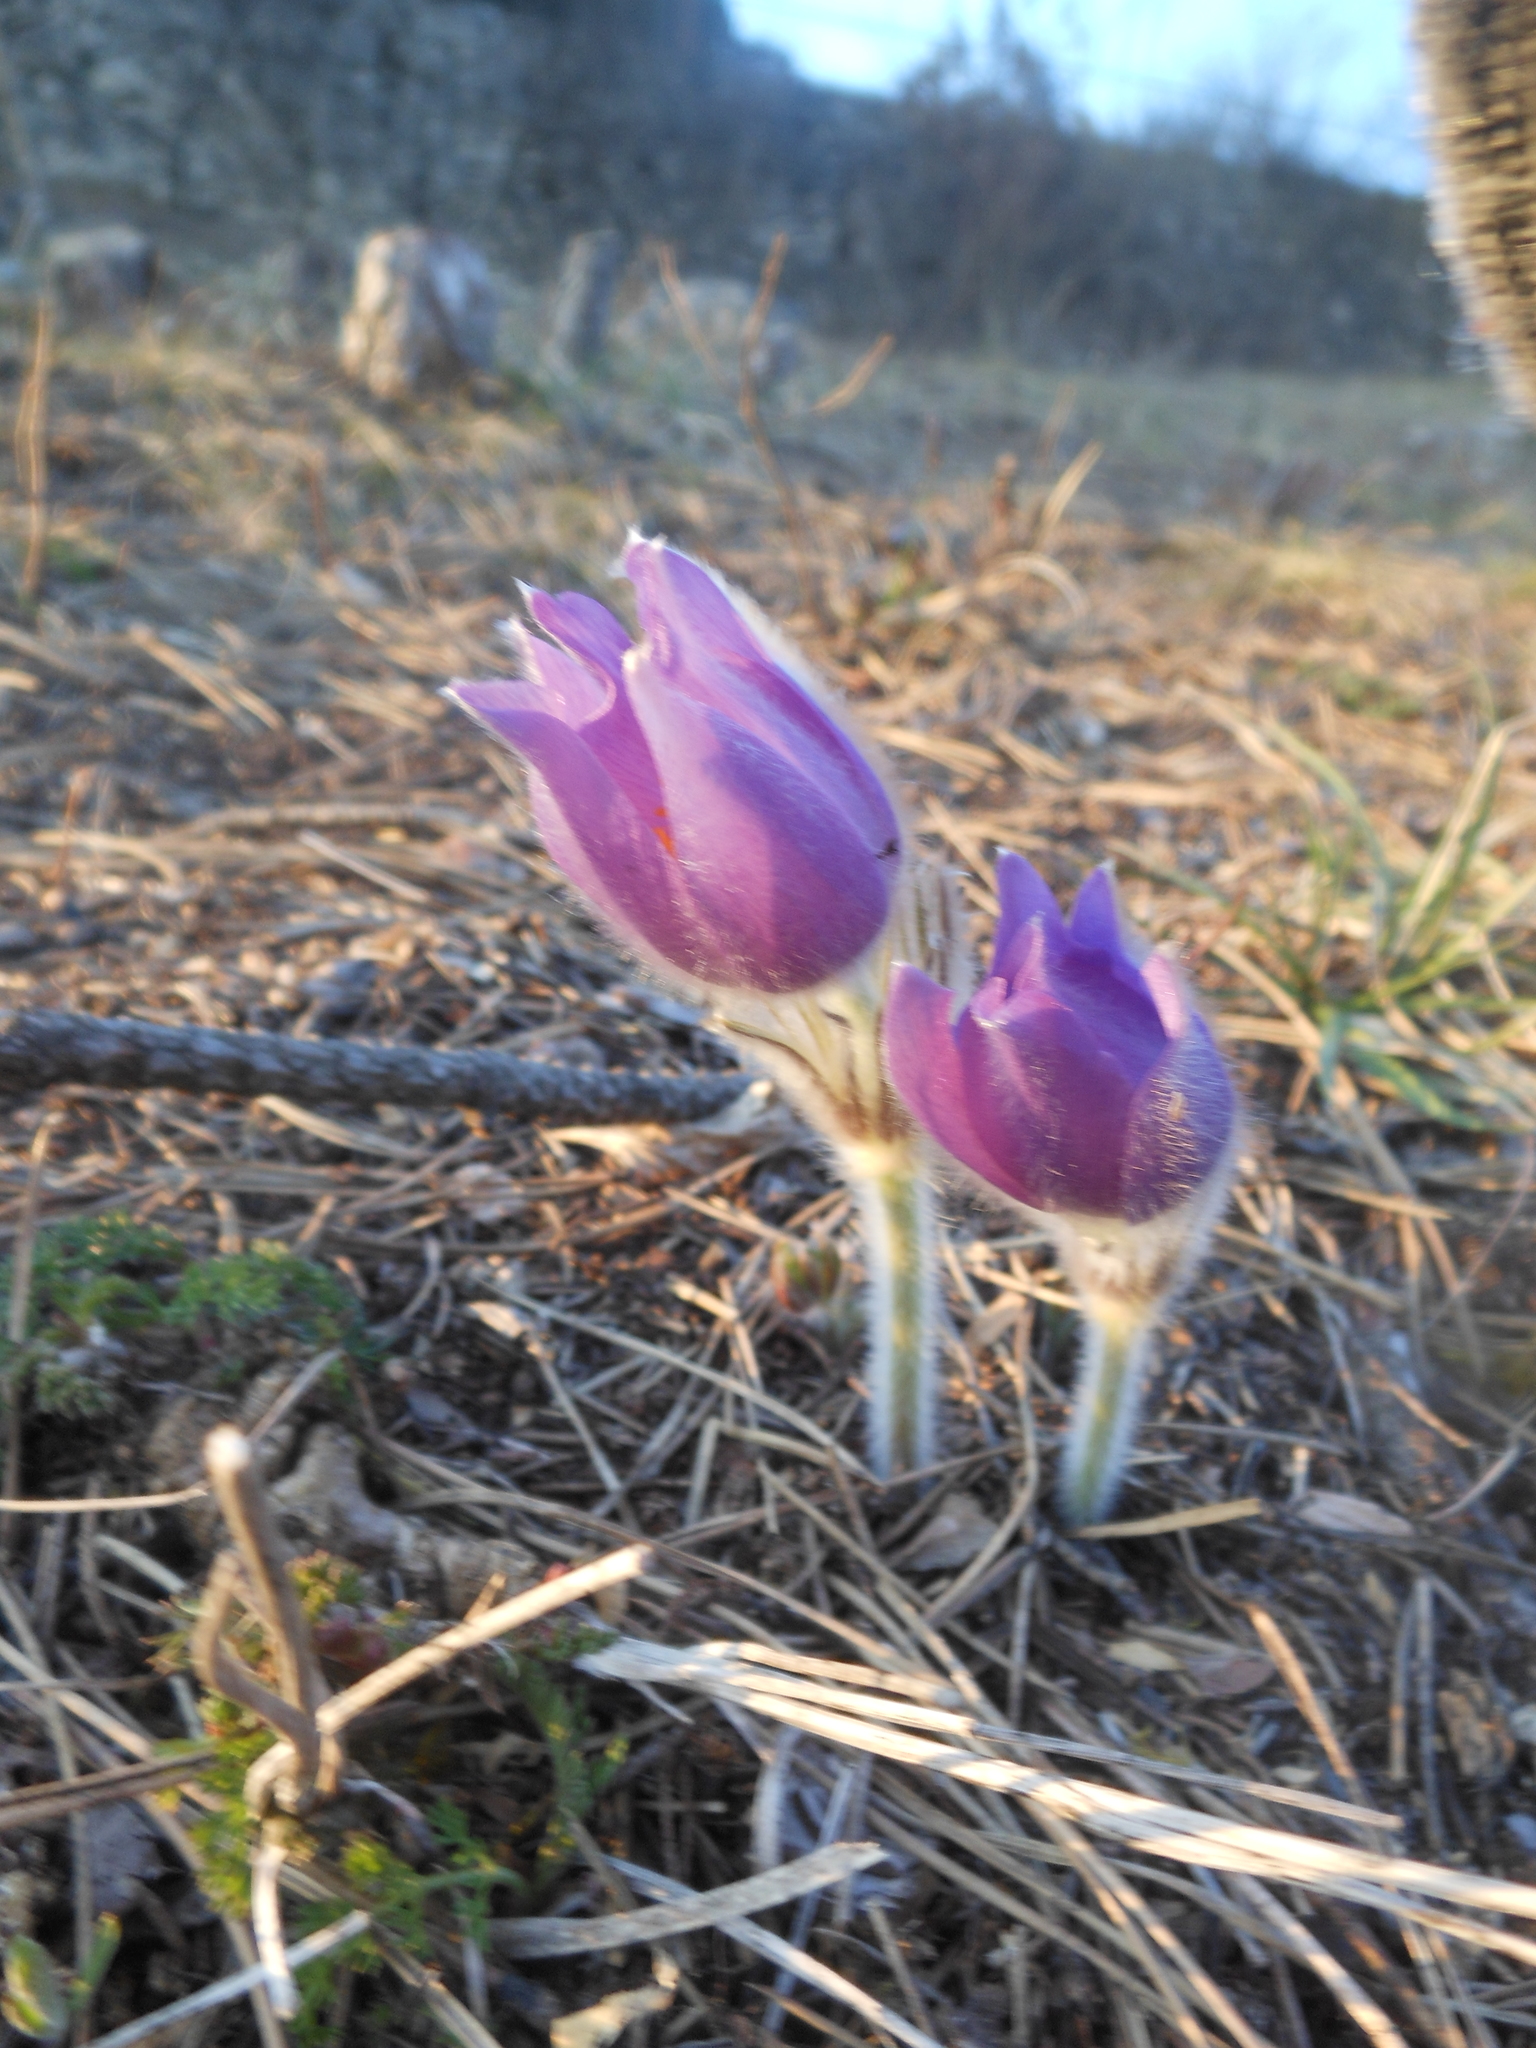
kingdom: Plantae
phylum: Tracheophyta
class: Magnoliopsida
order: Ranunculales
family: Ranunculaceae
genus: Pulsatilla
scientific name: Pulsatilla grandis
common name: Greater pasque flower
